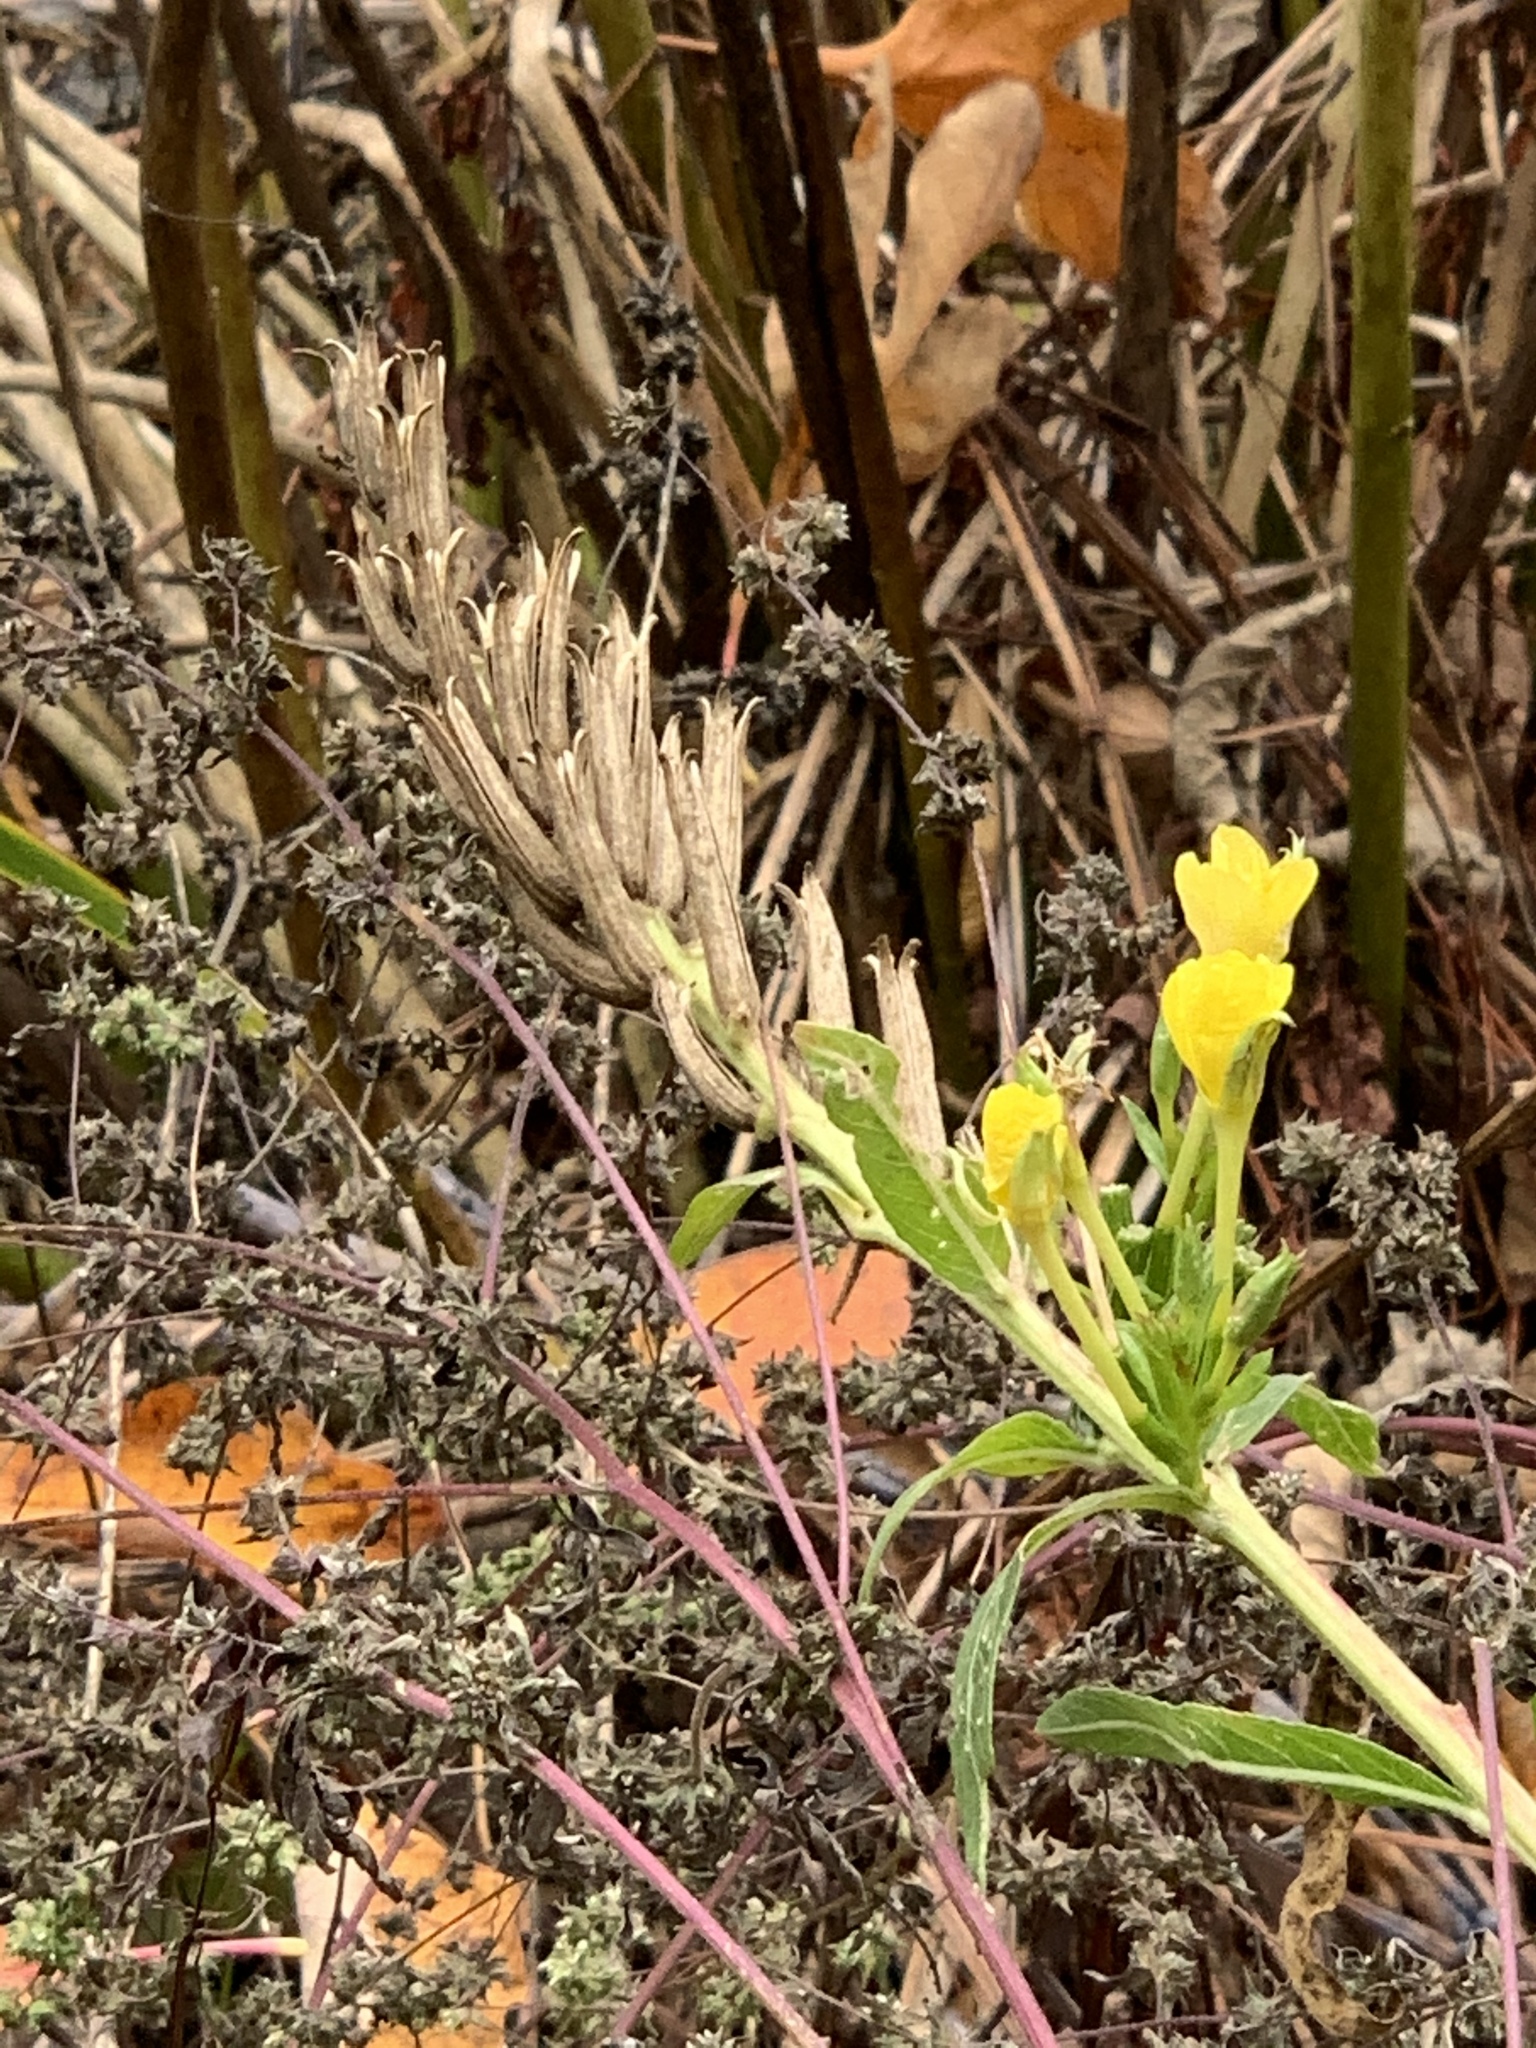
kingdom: Plantae
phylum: Tracheophyta
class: Magnoliopsida
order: Myrtales
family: Onagraceae
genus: Oenothera
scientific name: Oenothera biennis
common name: Common evening-primrose
